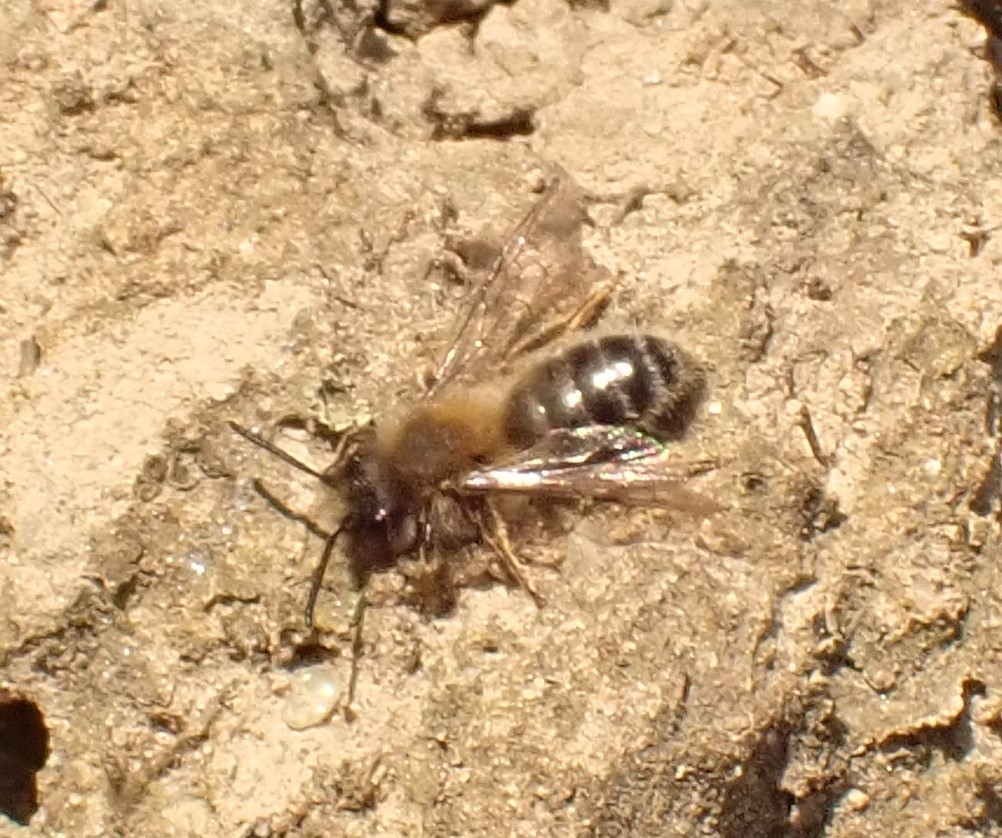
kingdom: Animalia
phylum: Arthropoda
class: Insecta
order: Hymenoptera
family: Colletidae
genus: Colletes
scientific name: Colletes cunicularius
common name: Early colletes
